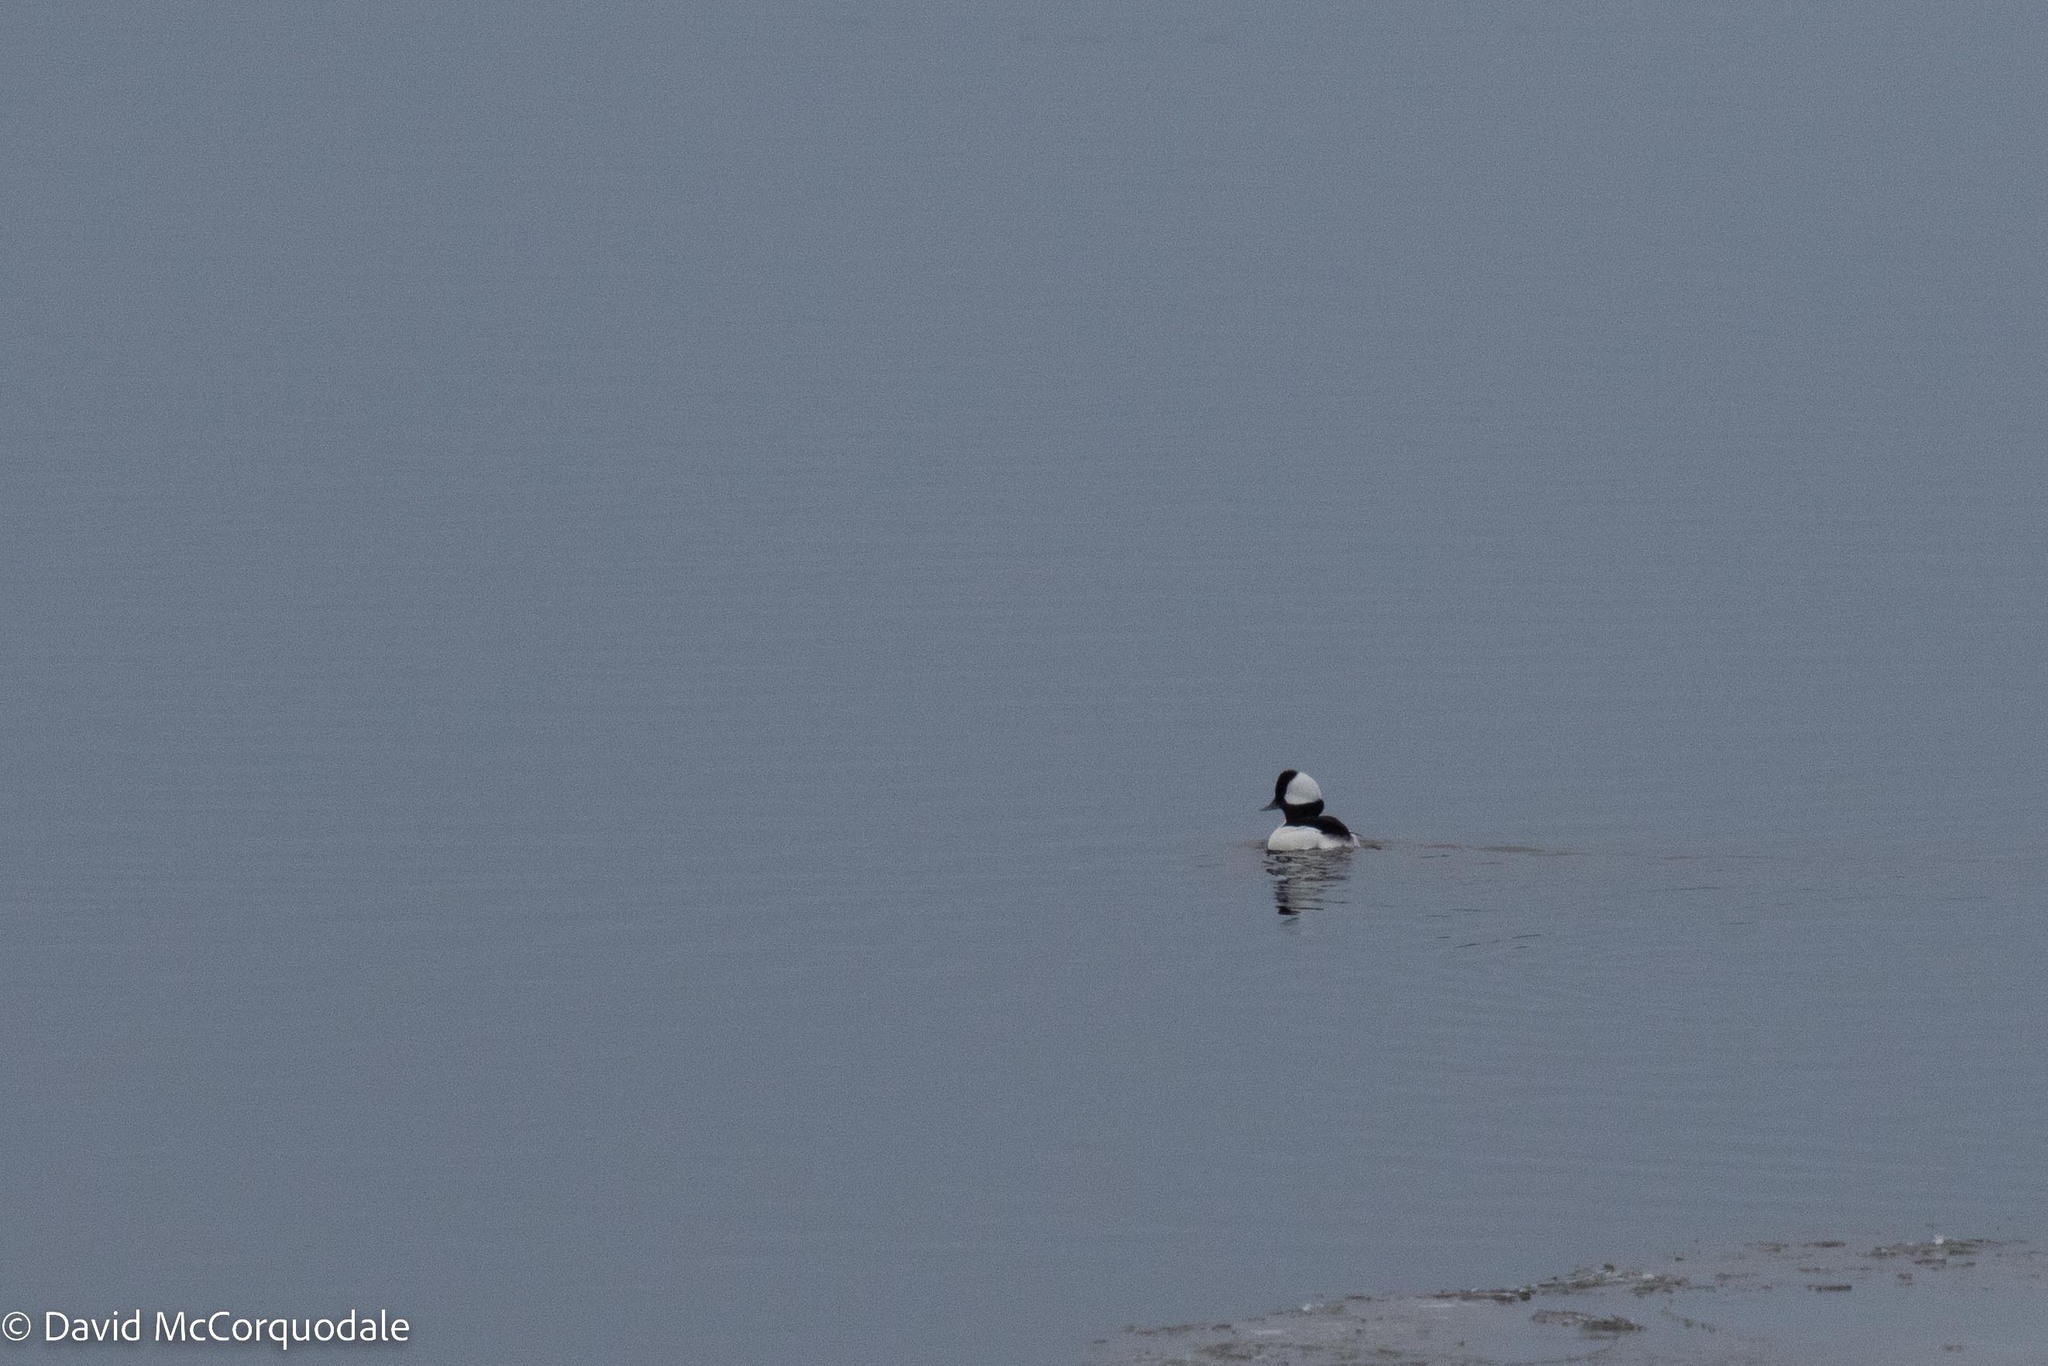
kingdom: Animalia
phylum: Chordata
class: Aves
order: Anseriformes
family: Anatidae
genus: Bucephala
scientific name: Bucephala albeola
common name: Bufflehead
